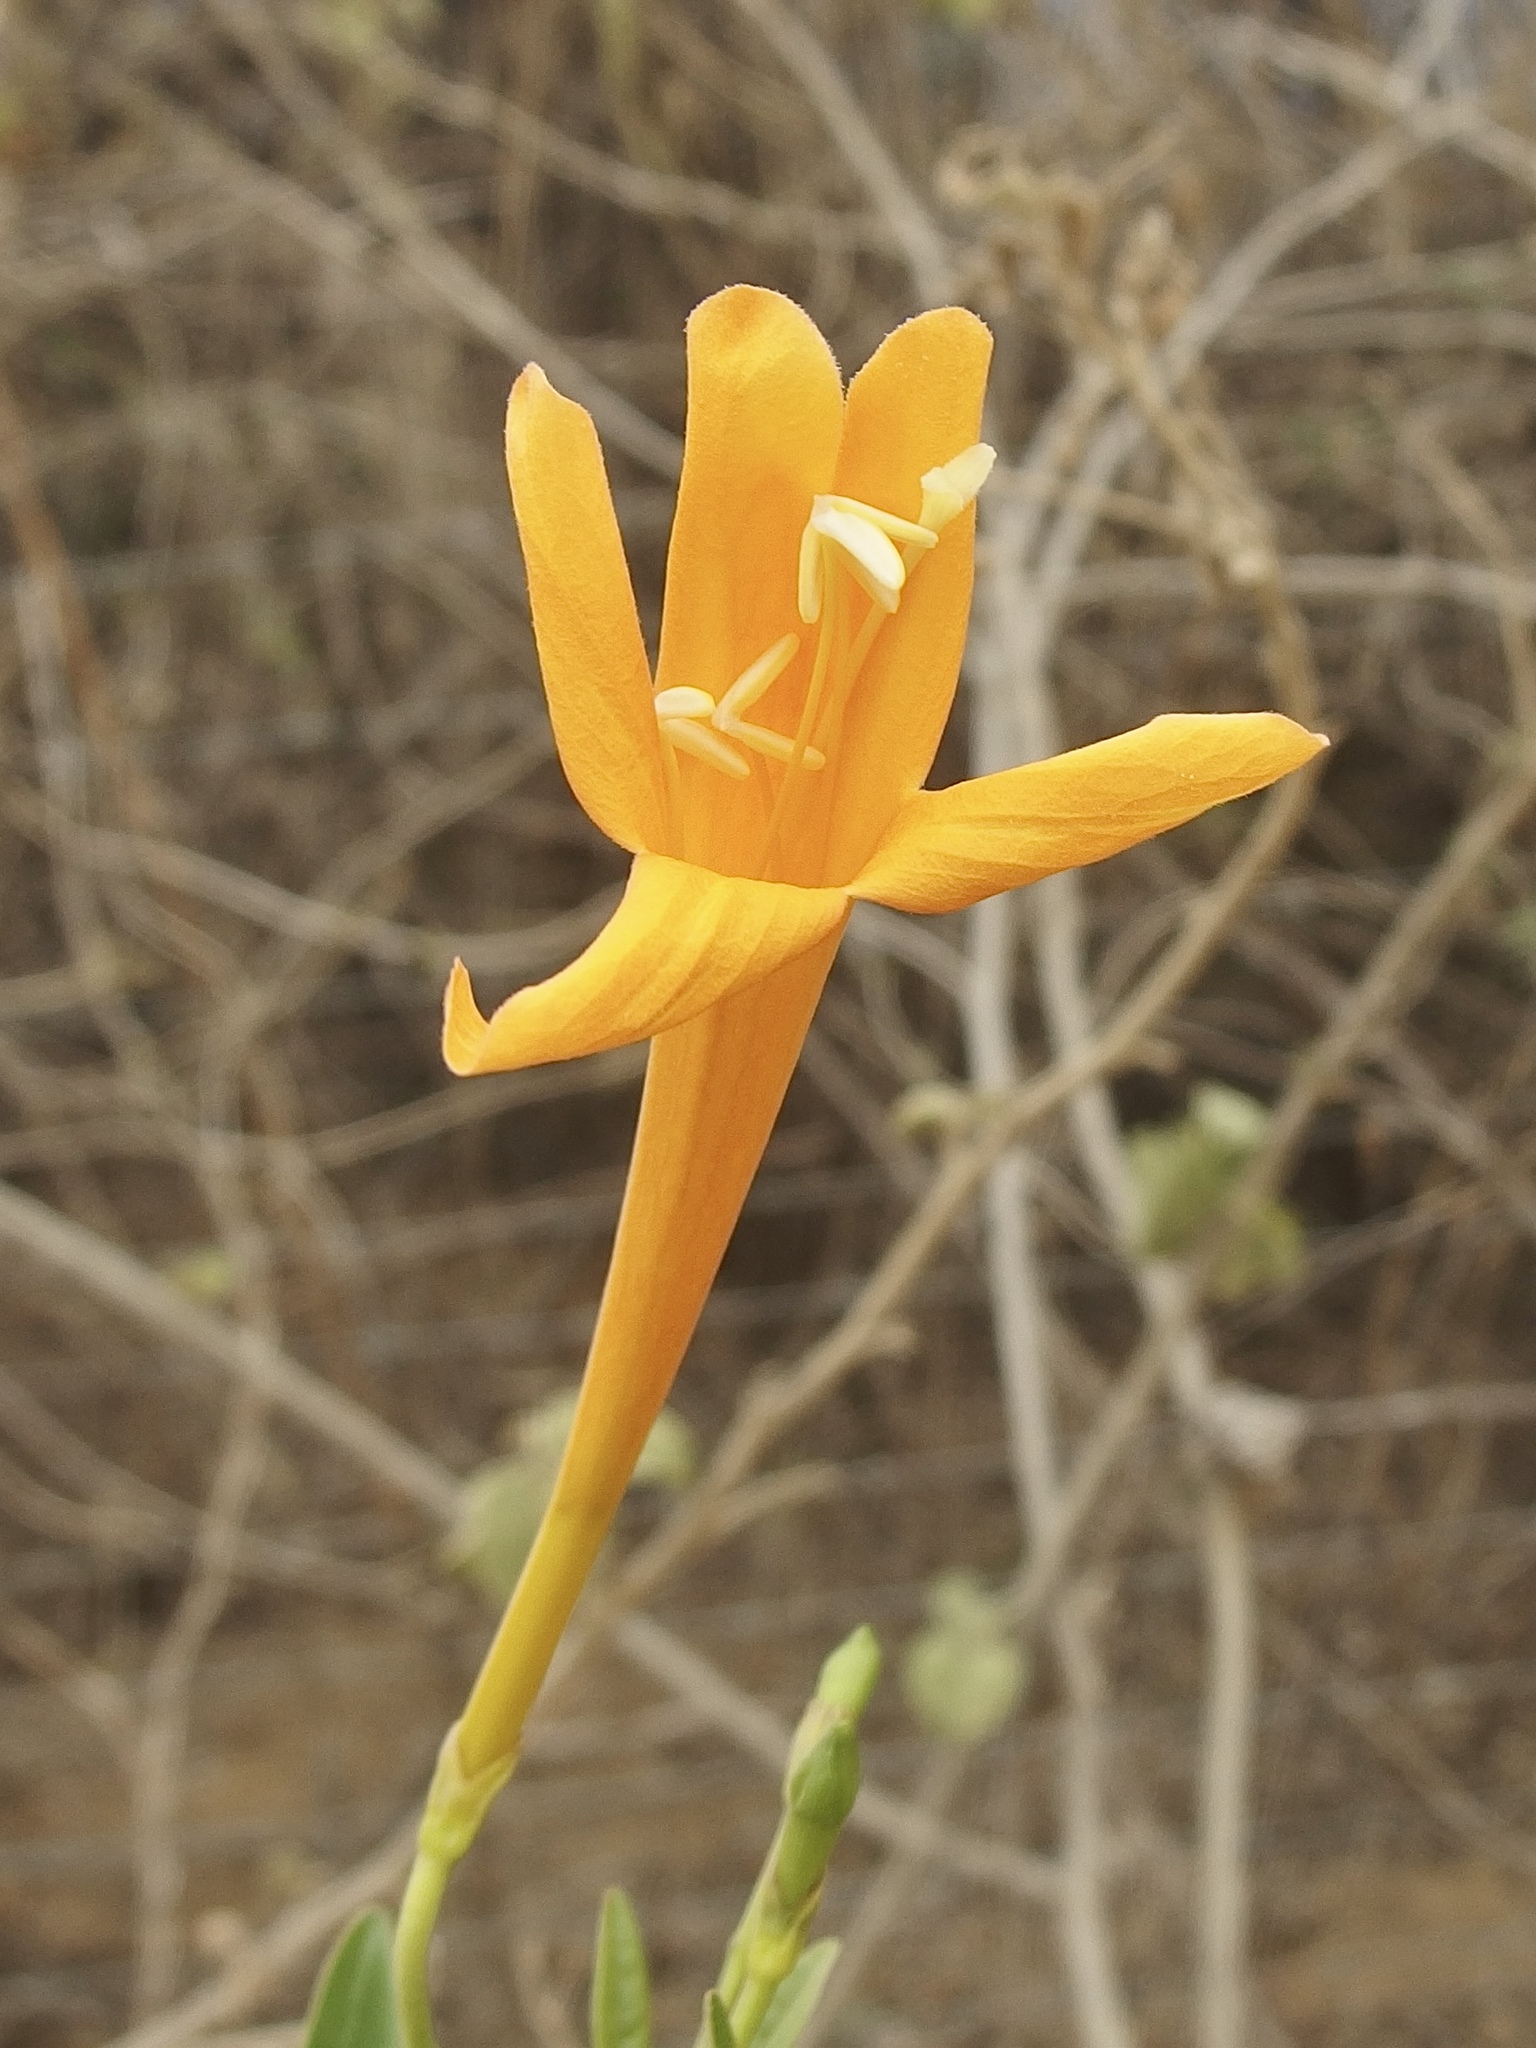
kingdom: Plantae
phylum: Tracheophyta
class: Magnoliopsida
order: Lamiales
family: Bignoniaceae
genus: Bignonia
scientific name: Bignonia longiflora
